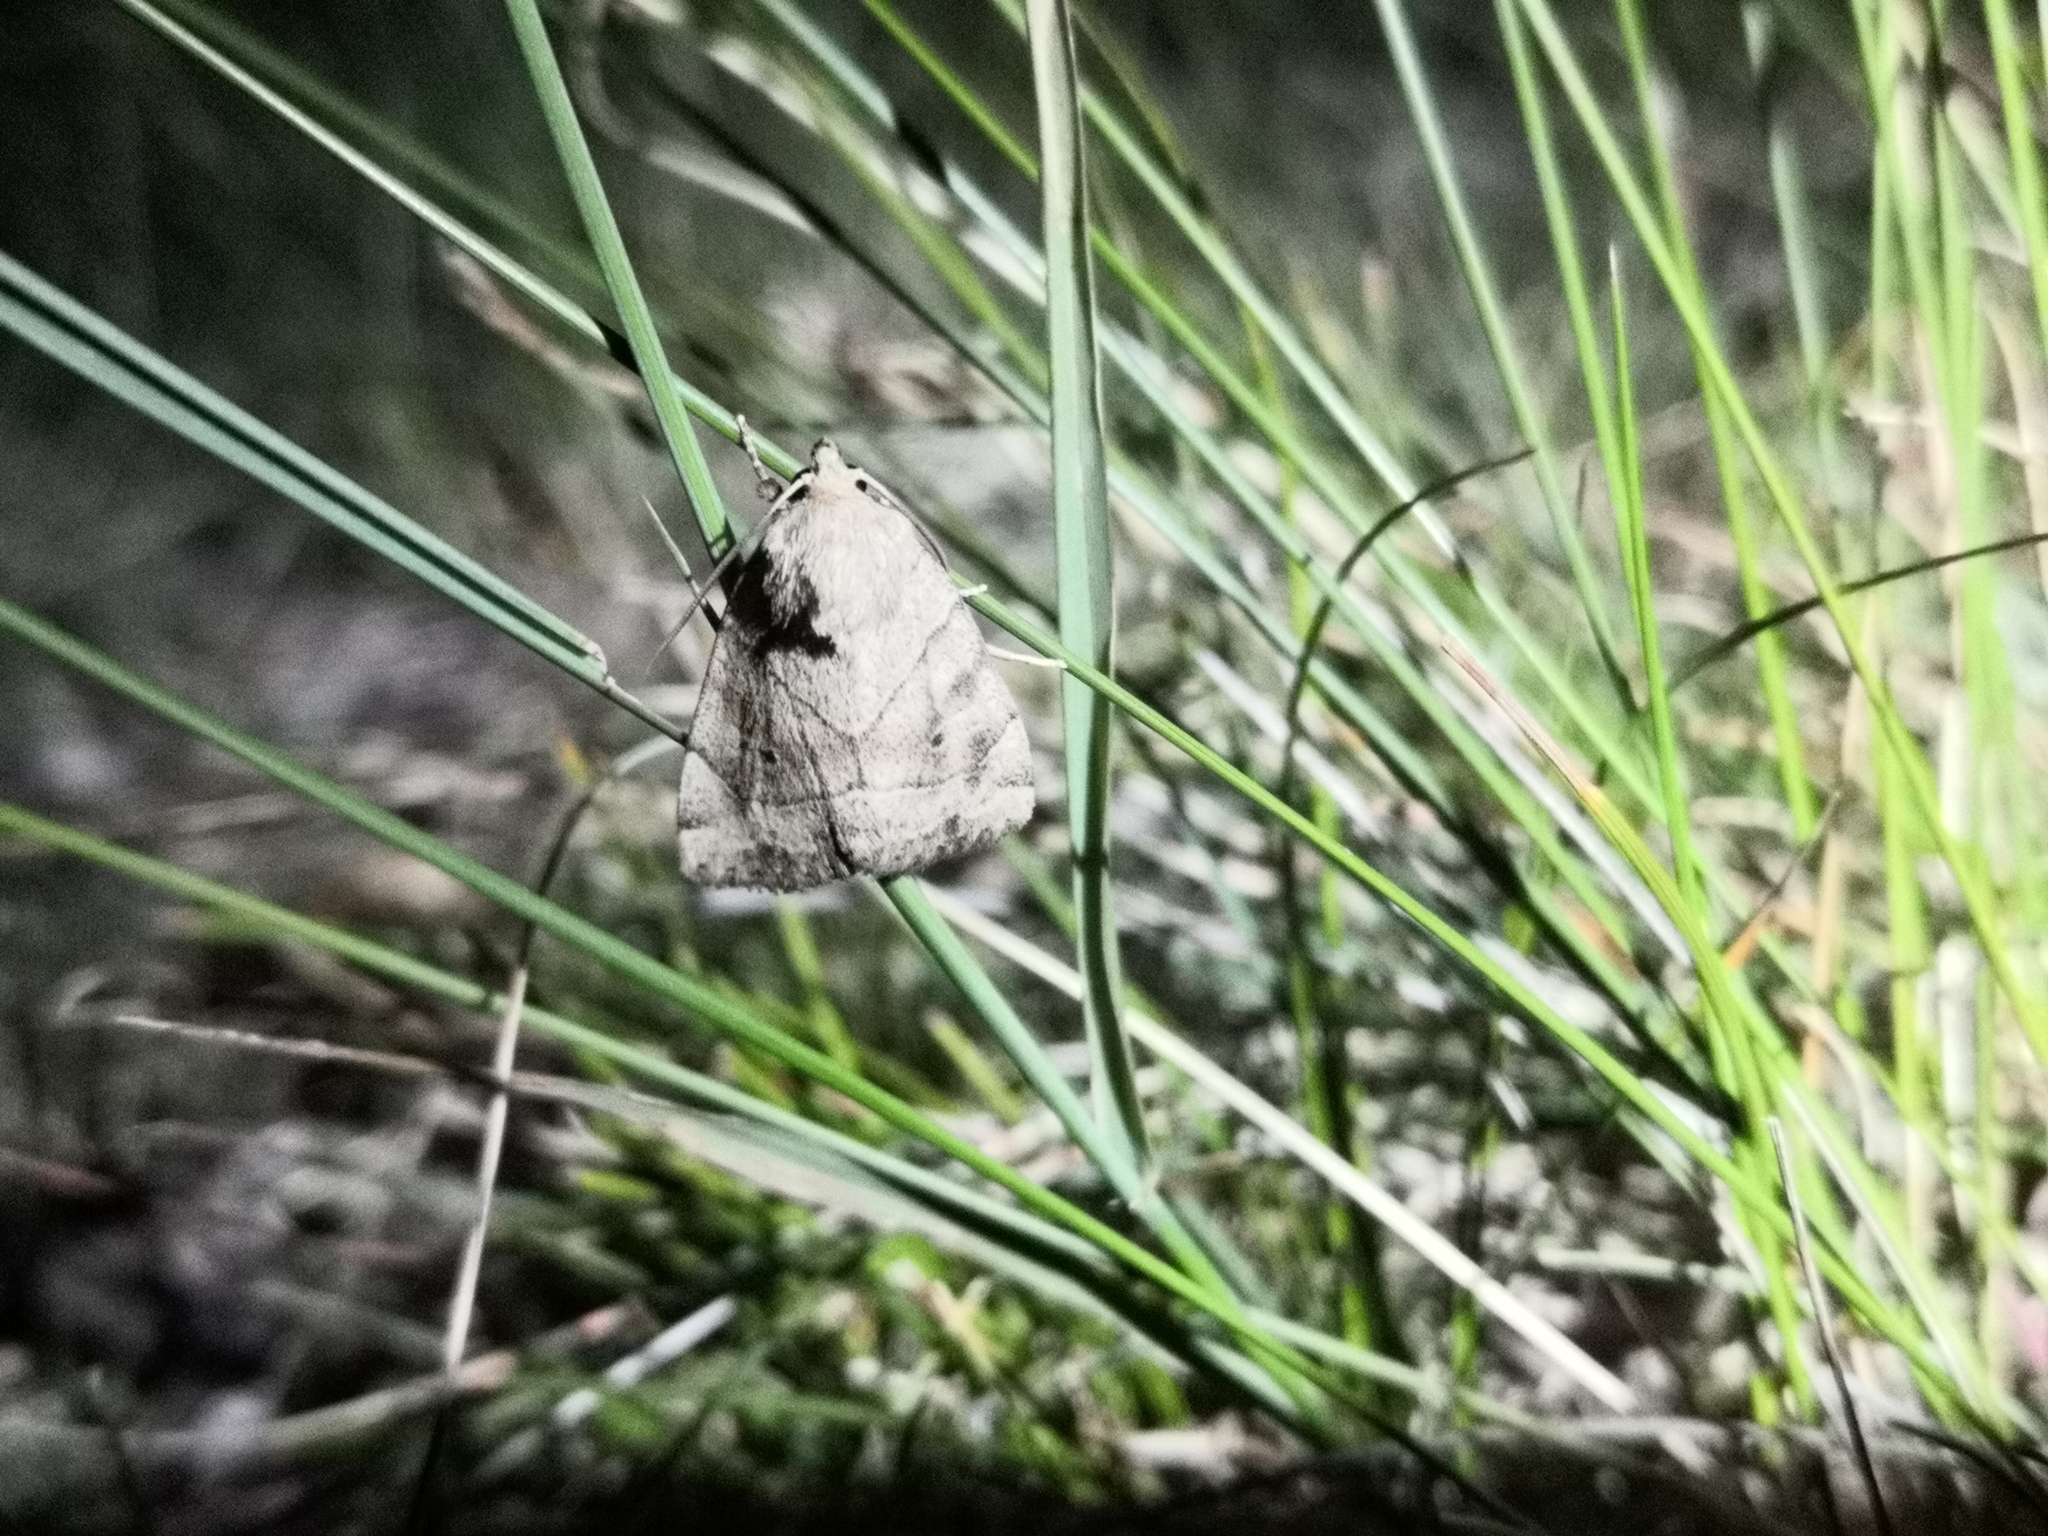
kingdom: Animalia
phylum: Arthropoda
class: Insecta
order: Lepidoptera
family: Noctuidae
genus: Cosmia
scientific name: Cosmia trapezina
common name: Dun-bar
